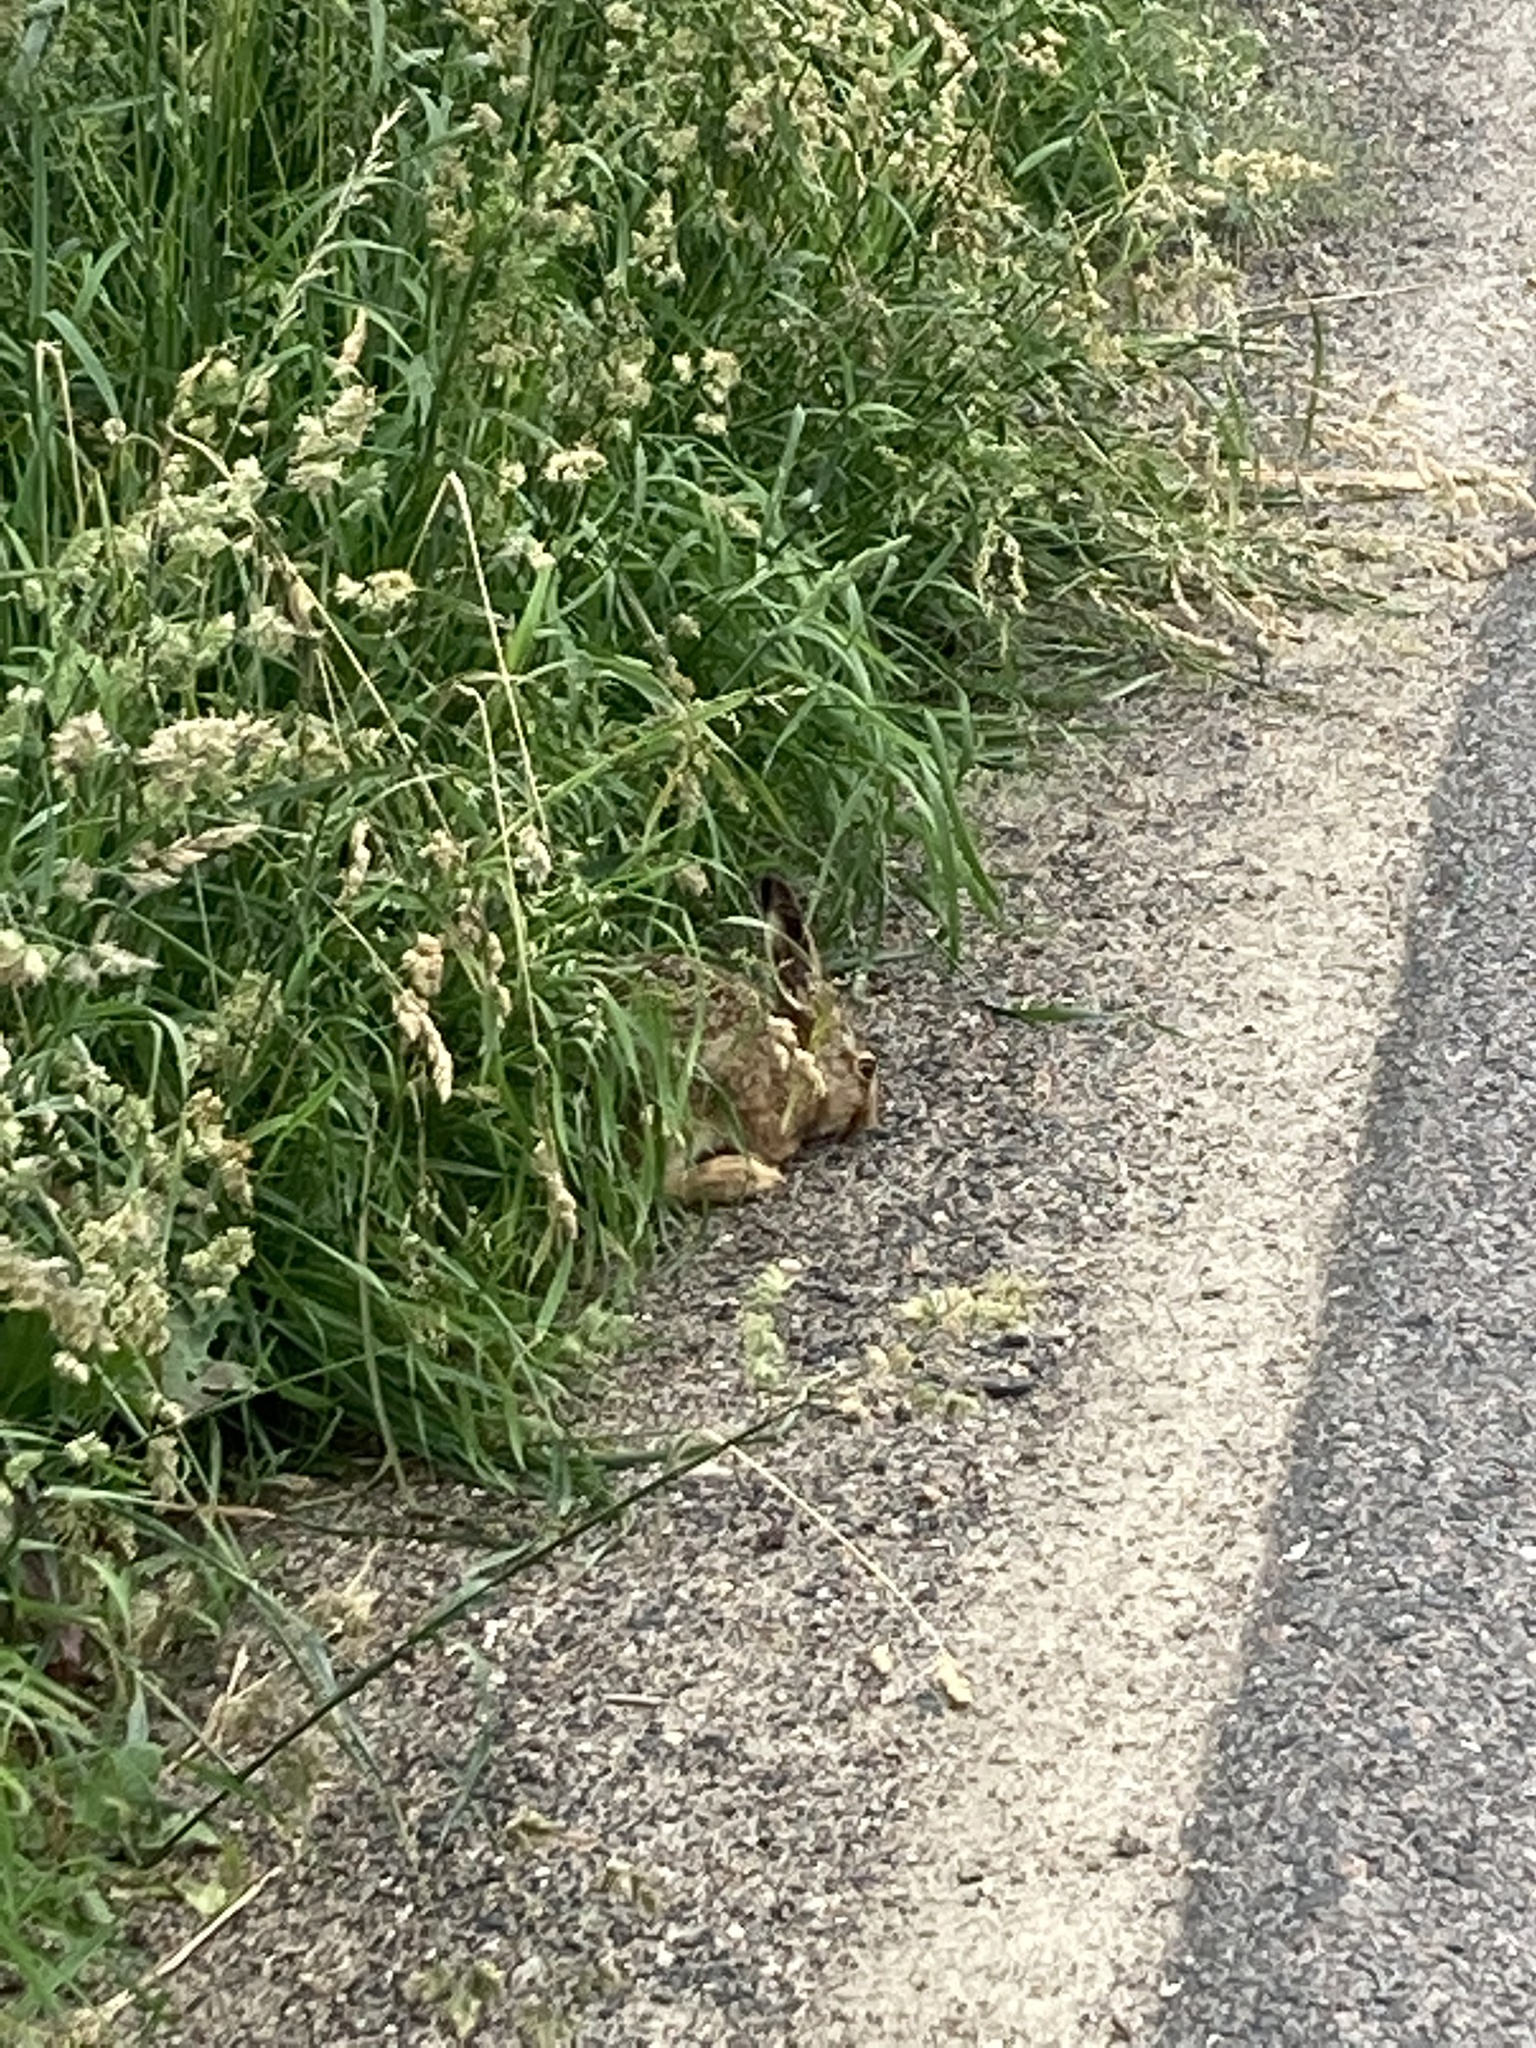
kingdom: Animalia
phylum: Chordata
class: Mammalia
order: Lagomorpha
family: Leporidae
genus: Lepus
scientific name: Lepus europaeus
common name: European hare
